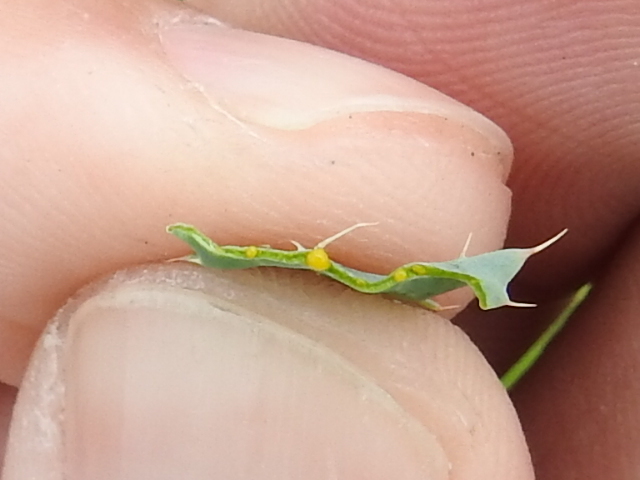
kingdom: Plantae
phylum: Tracheophyta
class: Magnoliopsida
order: Ranunculales
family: Papaveraceae
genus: Argemone
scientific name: Argemone pleiacantha
